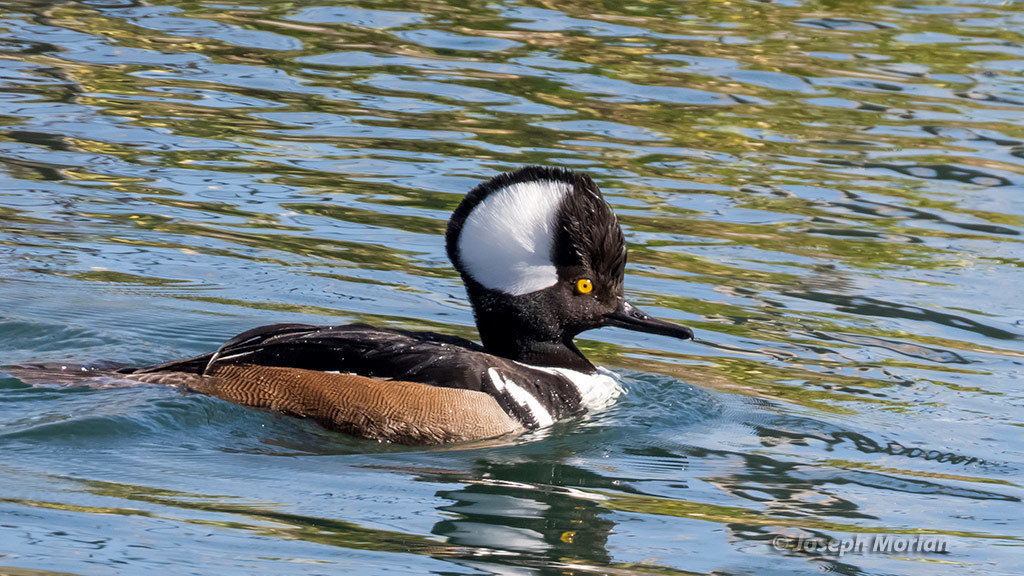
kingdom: Animalia
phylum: Chordata
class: Aves
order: Anseriformes
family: Anatidae
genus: Lophodytes
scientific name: Lophodytes cucullatus
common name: Hooded merganser
